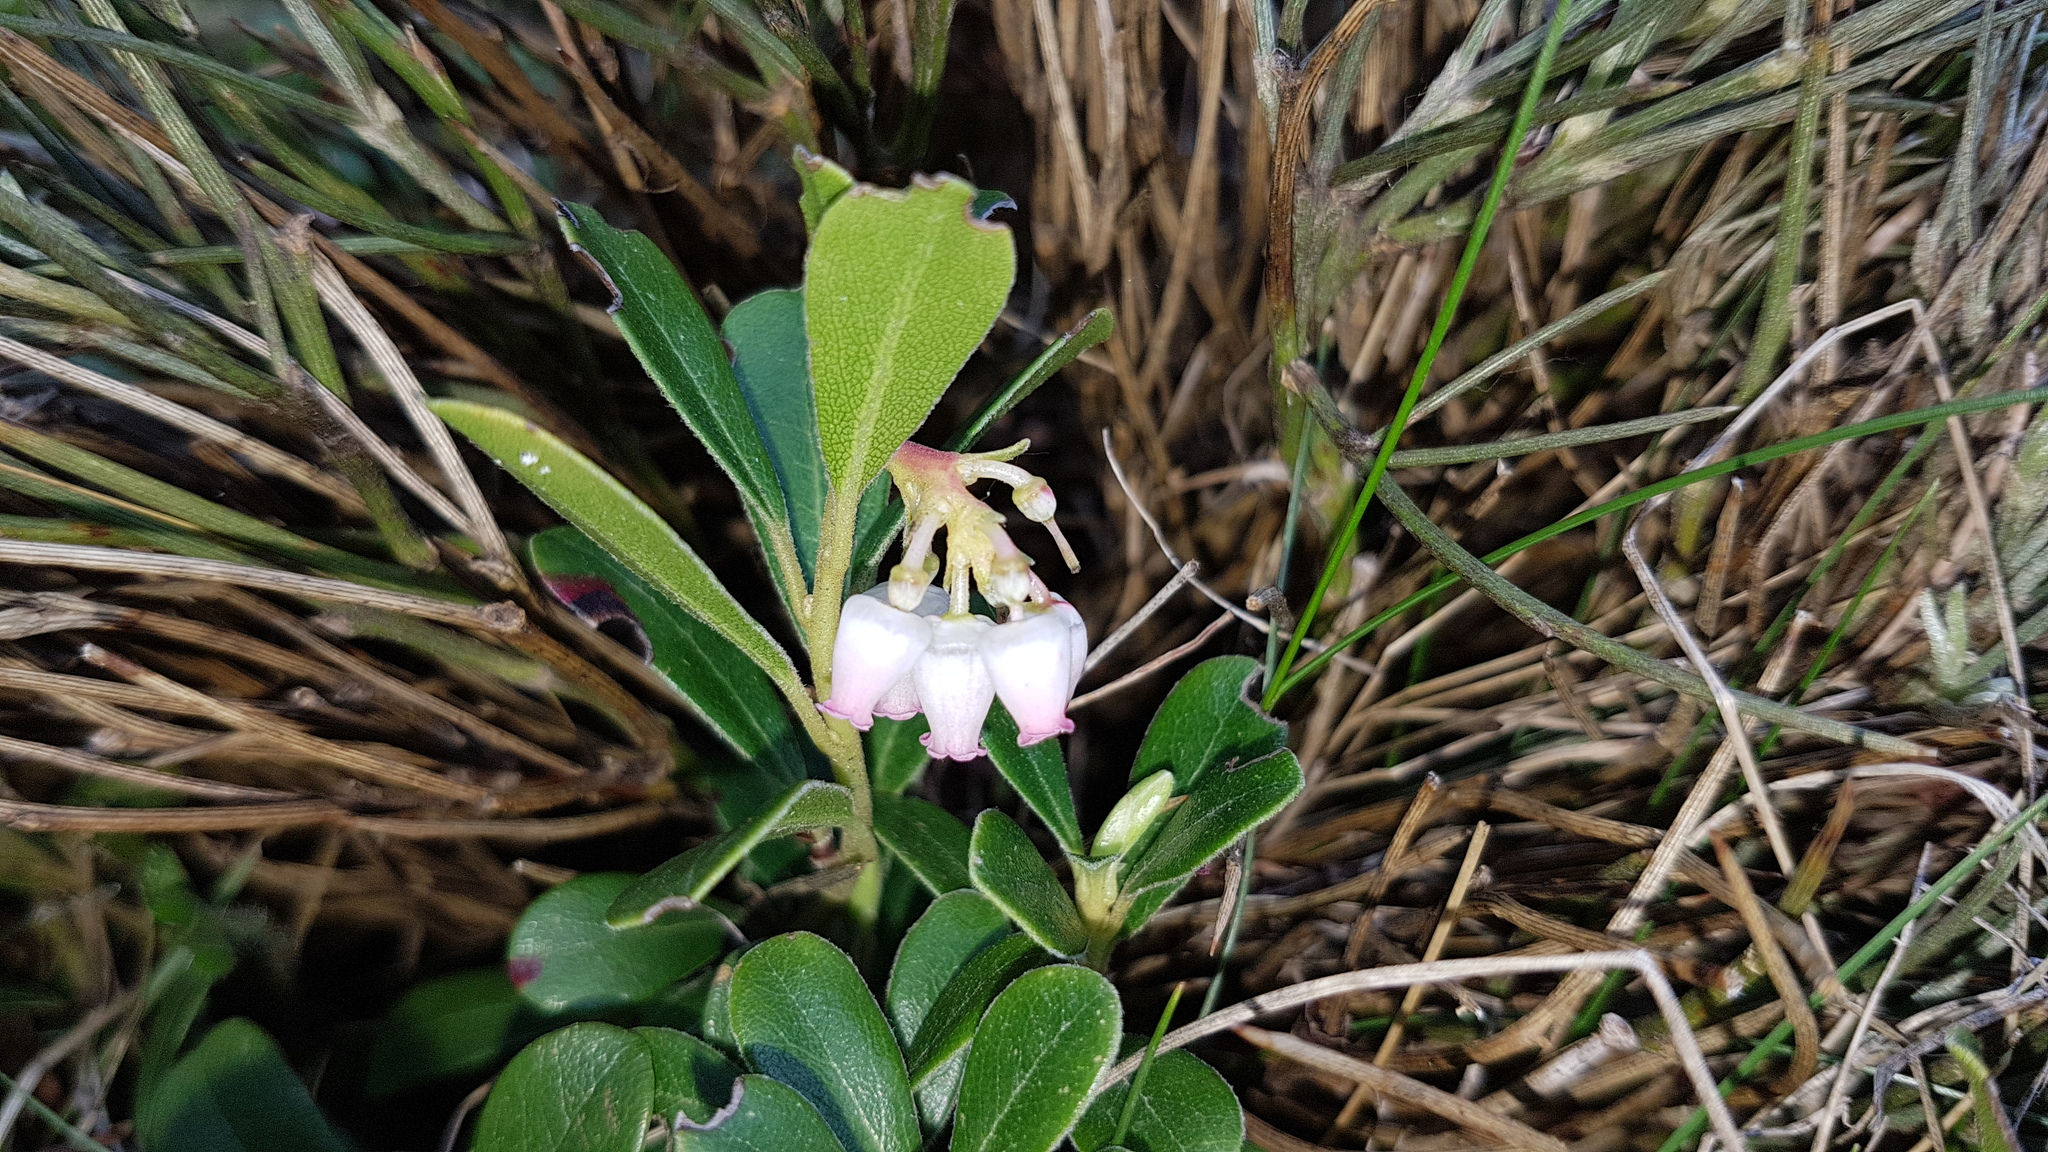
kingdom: Plantae
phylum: Tracheophyta
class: Magnoliopsida
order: Ericales
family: Ericaceae
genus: Arctostaphylos
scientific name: Arctostaphylos uva-ursi
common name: Bearberry
